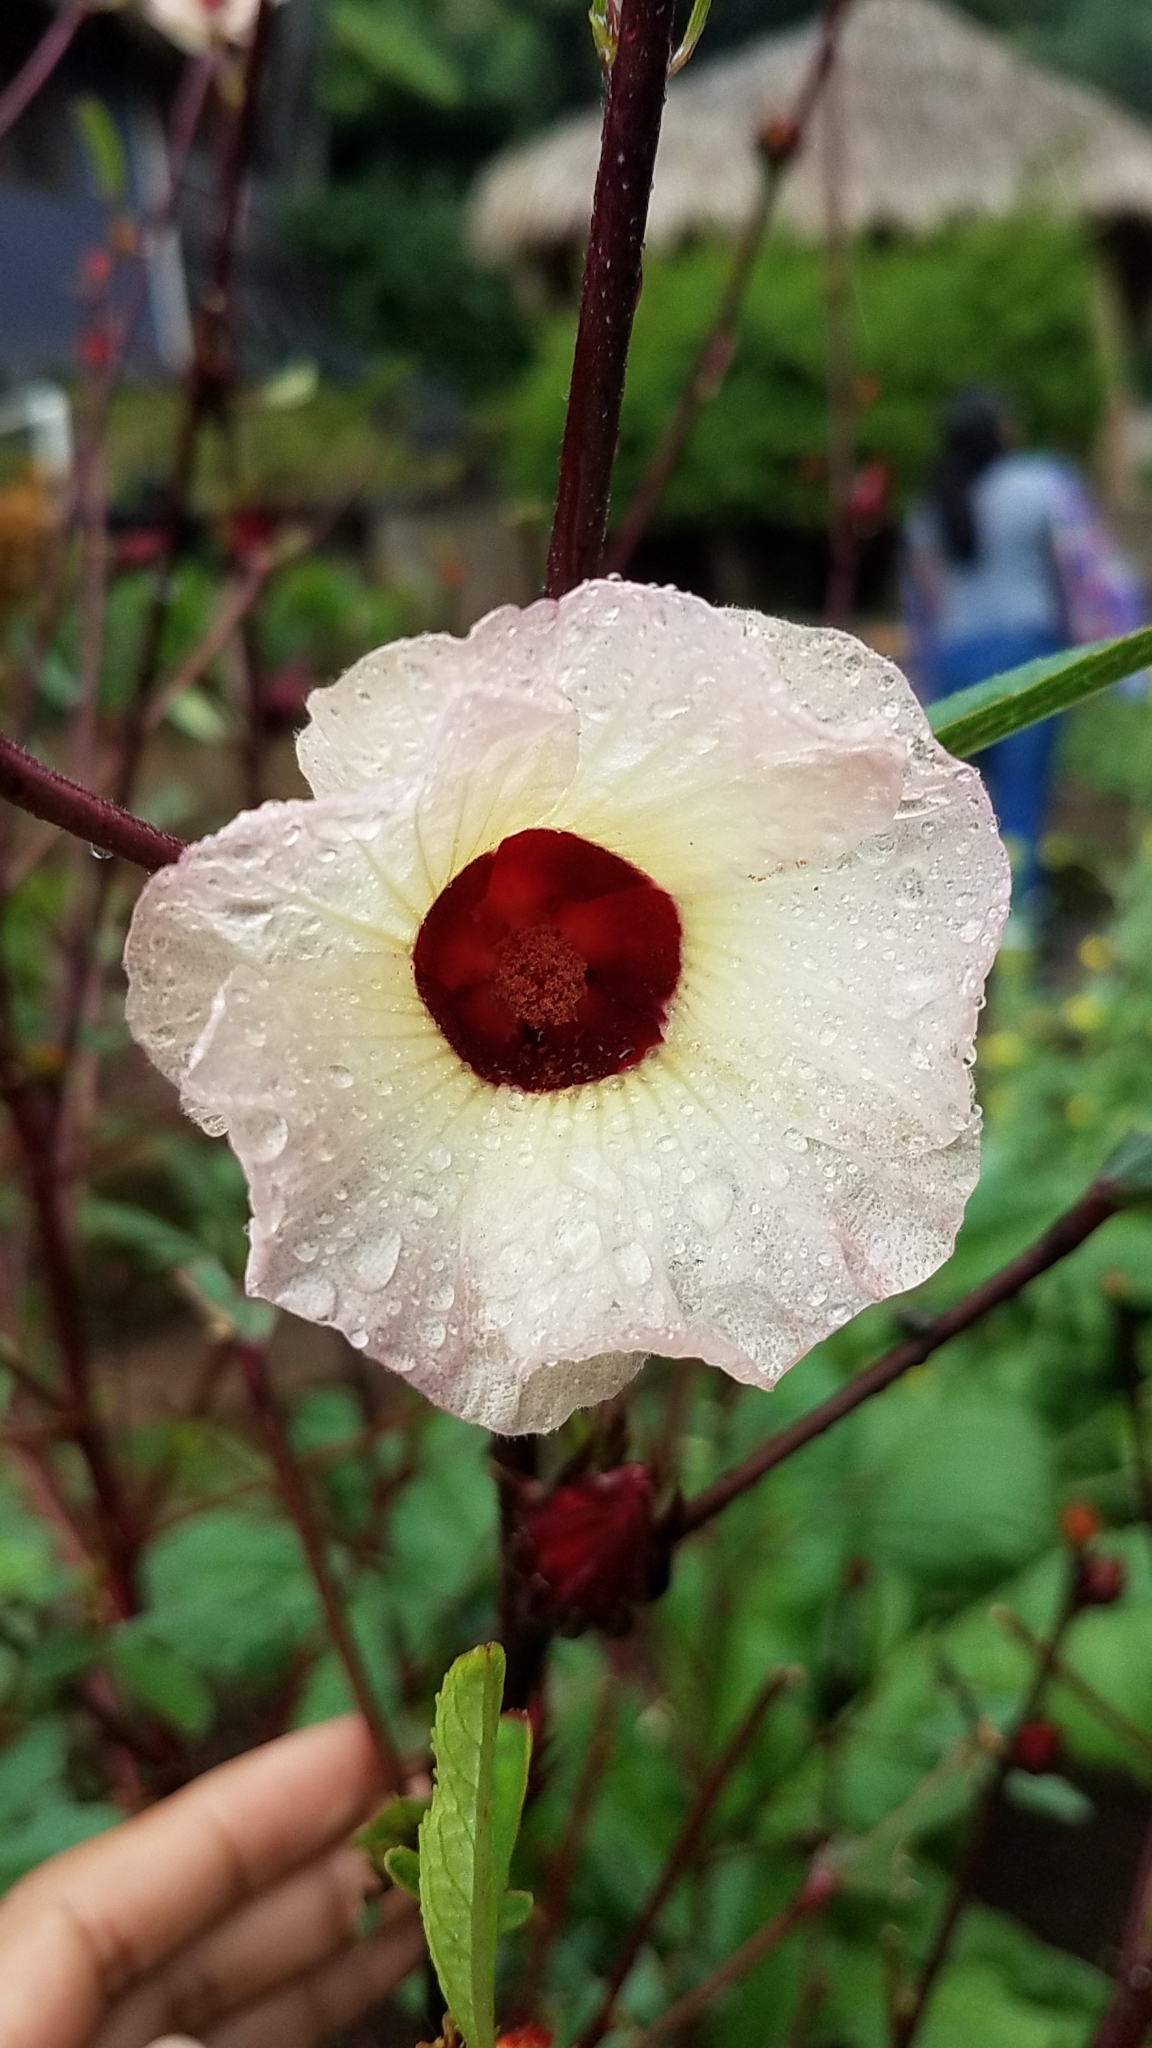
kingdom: Plantae
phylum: Tracheophyta
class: Magnoliopsida
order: Malvales
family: Malvaceae
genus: Hibiscus
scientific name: Hibiscus sabdariffa
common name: Roselle
